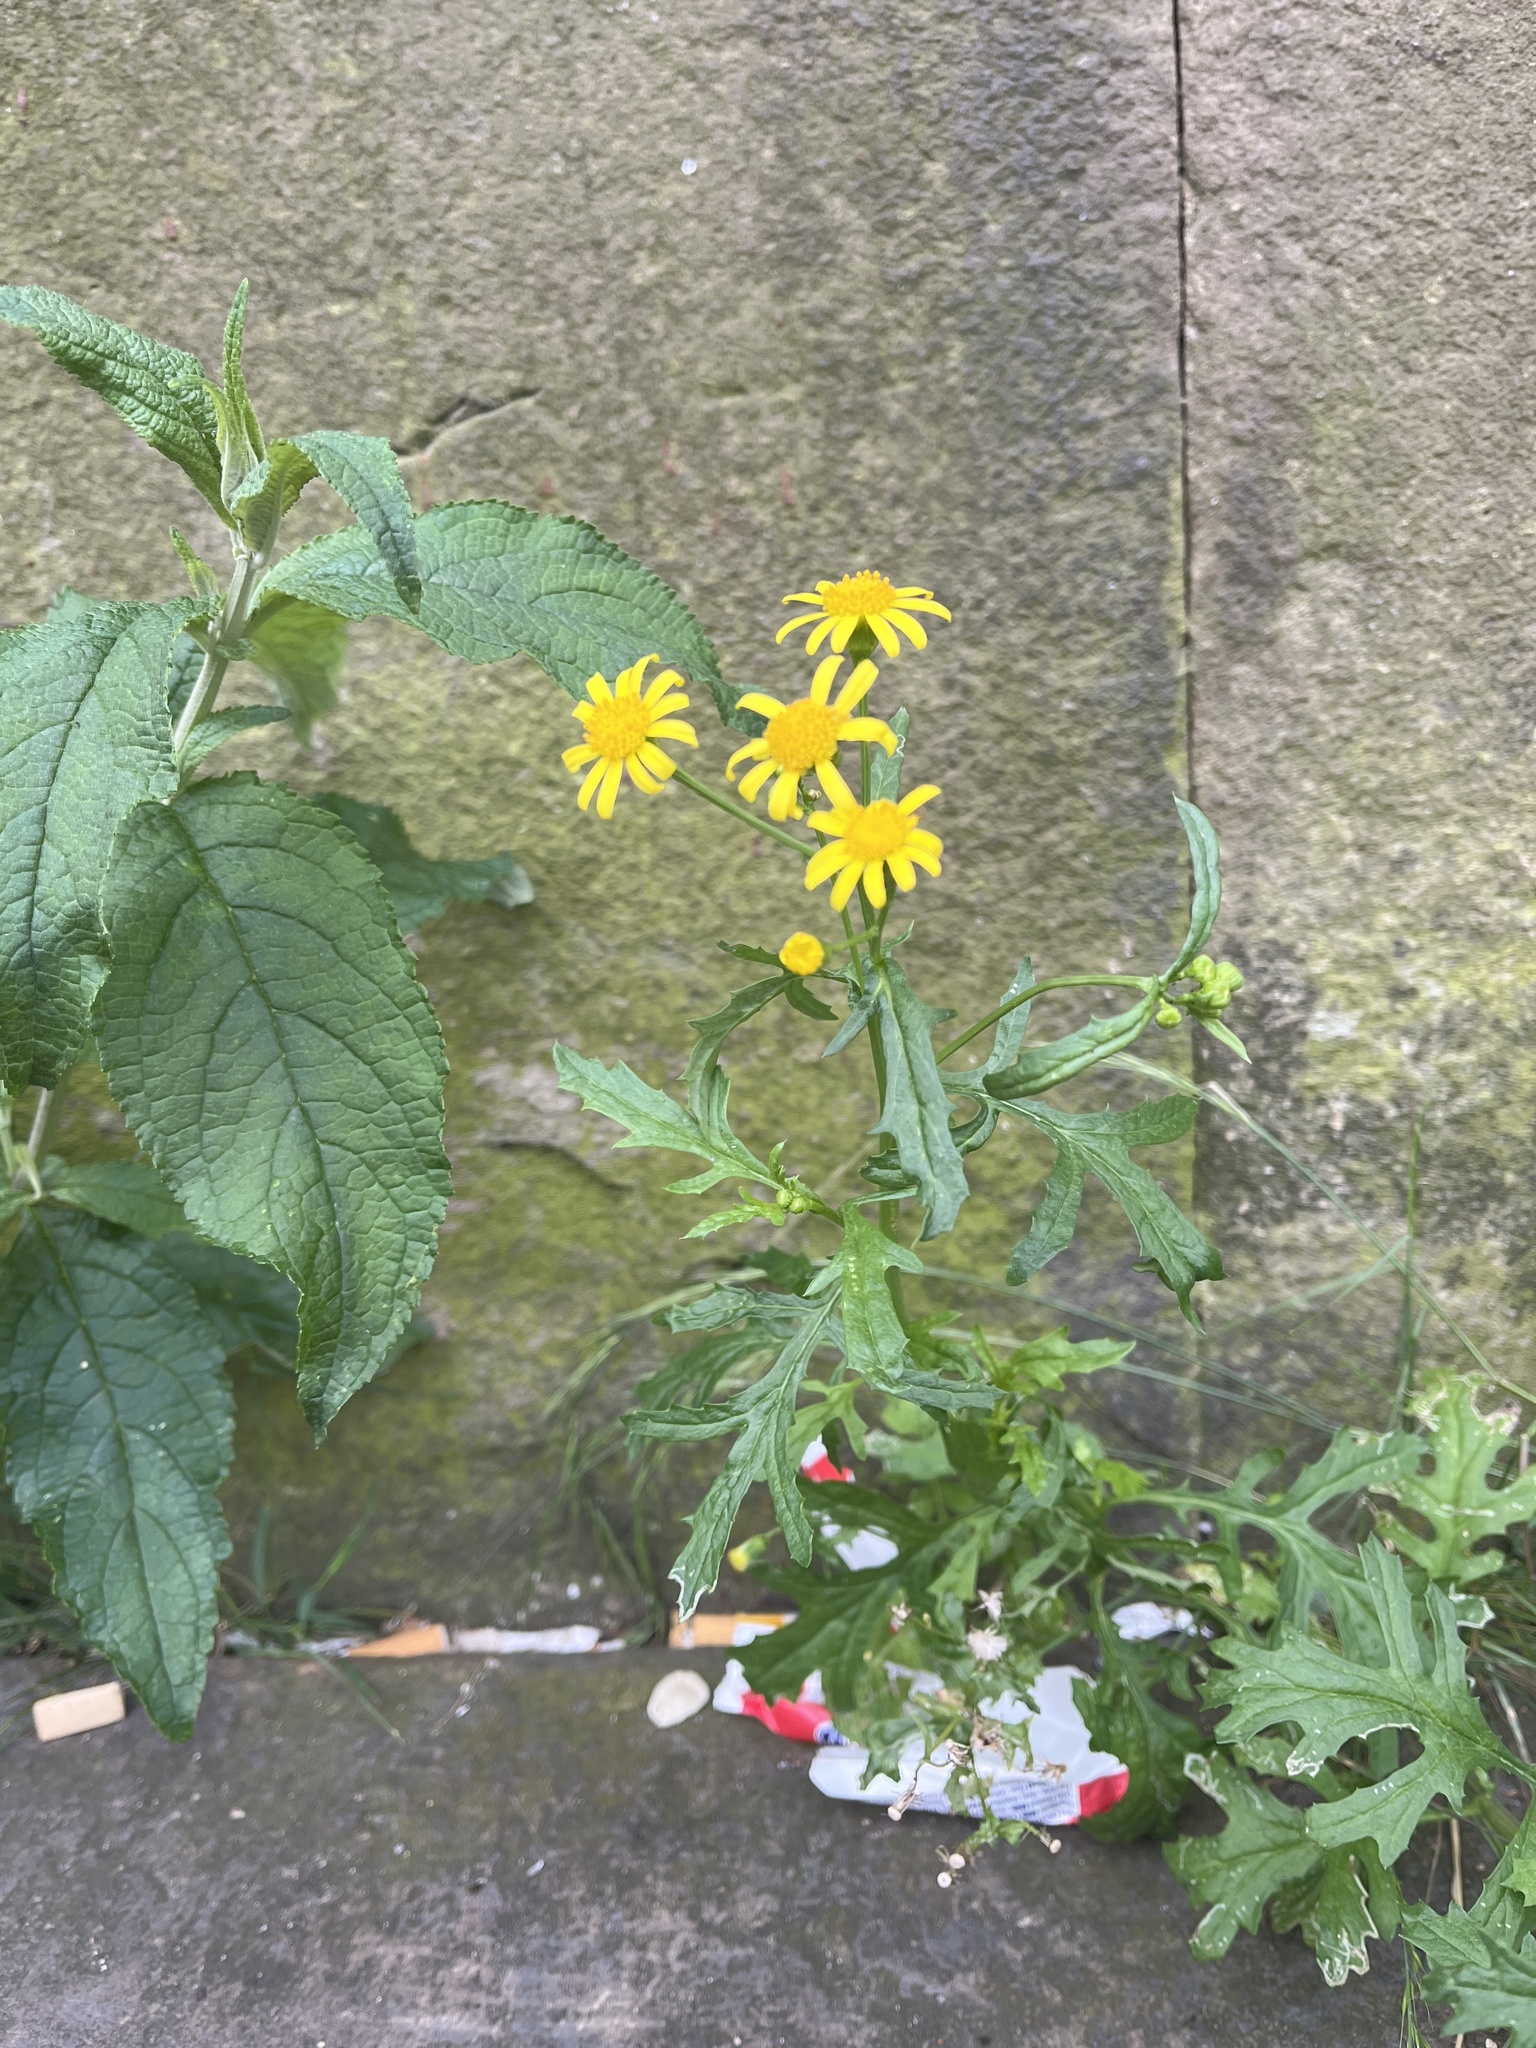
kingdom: Plantae
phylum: Tracheophyta
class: Magnoliopsida
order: Asterales
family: Asteraceae
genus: Senecio
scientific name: Senecio squalidus
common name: Oxford ragwort
